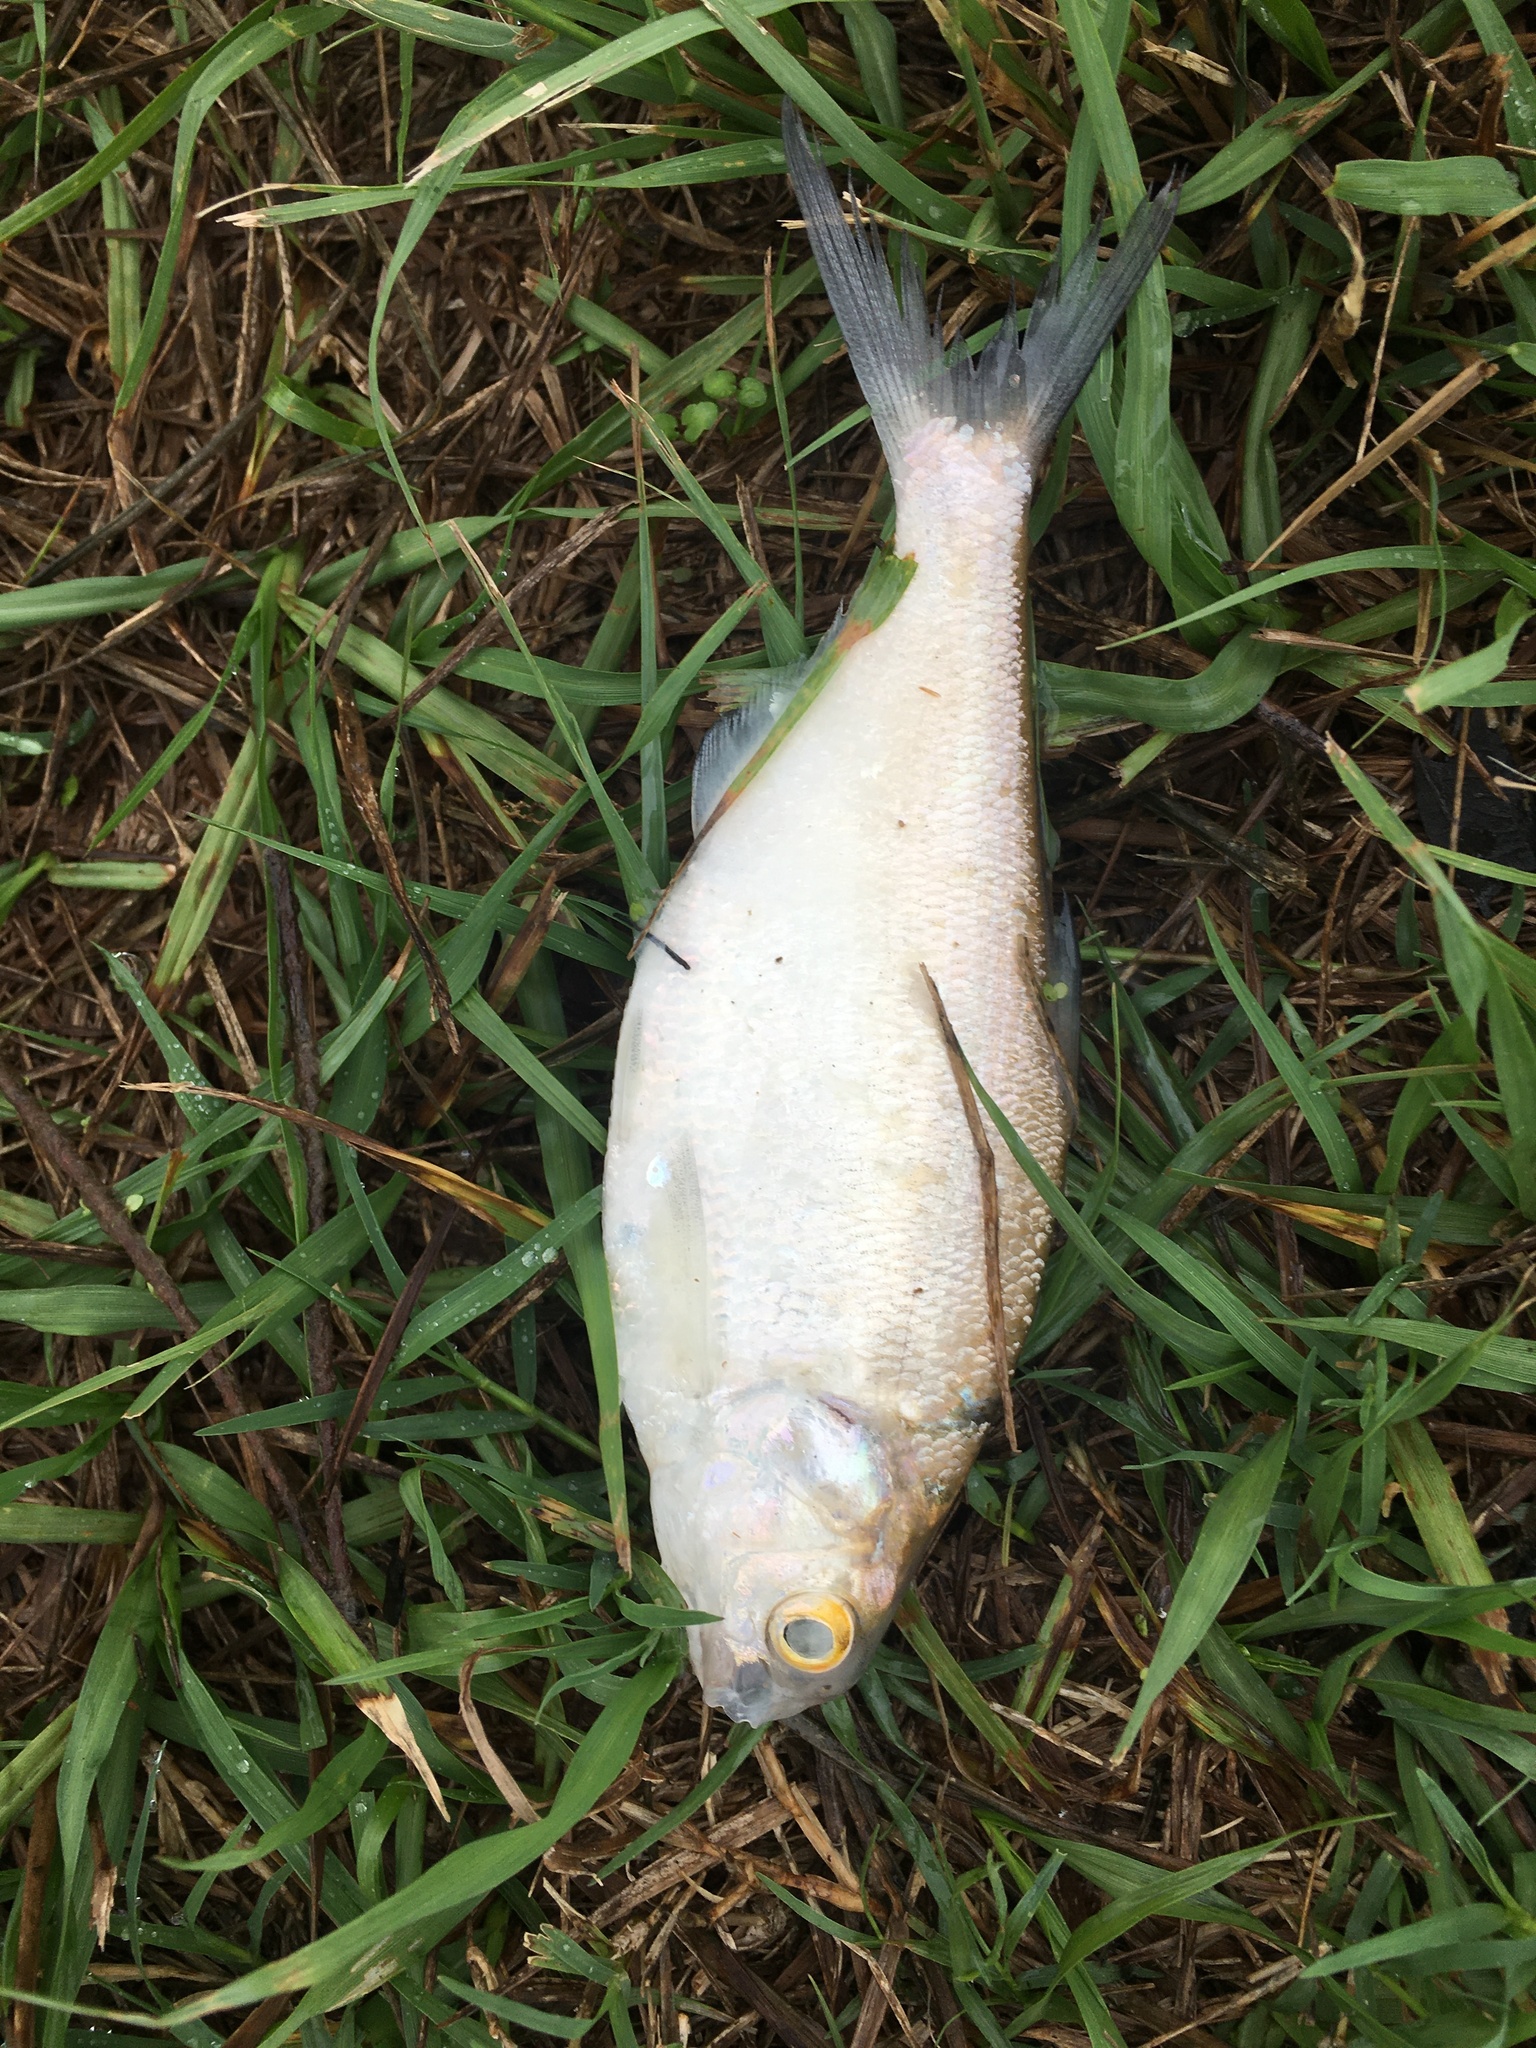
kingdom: Animalia
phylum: Chordata
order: Clupeiformes
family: Clupeidae
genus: Dorosoma
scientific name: Dorosoma cepedianum
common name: Gizzard shad
